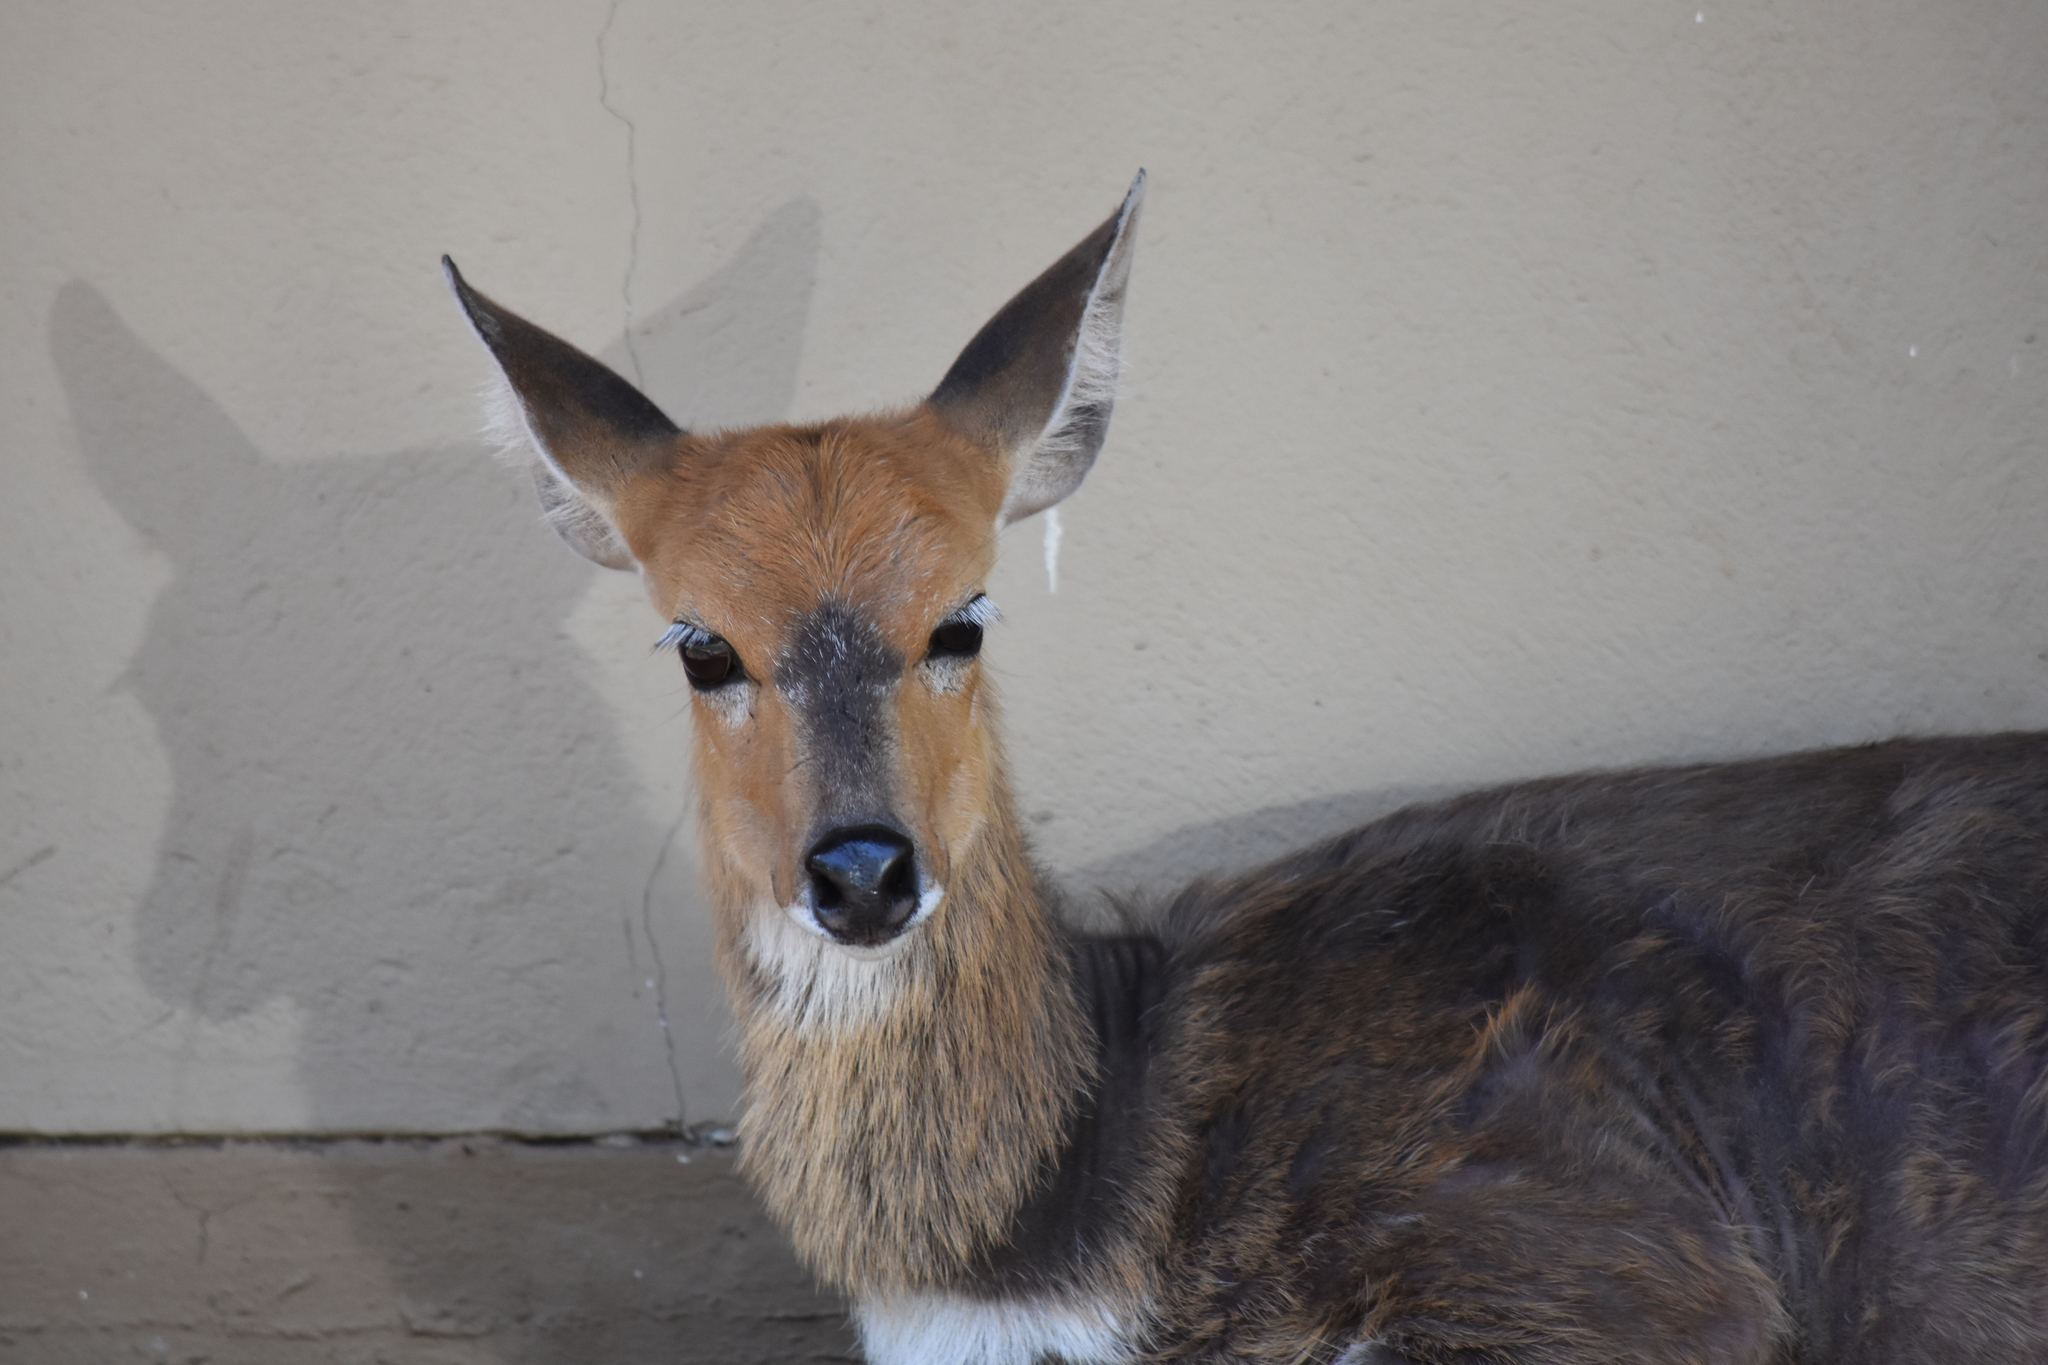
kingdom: Animalia
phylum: Chordata
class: Mammalia
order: Artiodactyla
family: Bovidae
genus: Tragelaphus
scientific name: Tragelaphus scriptus
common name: Bushbuck
